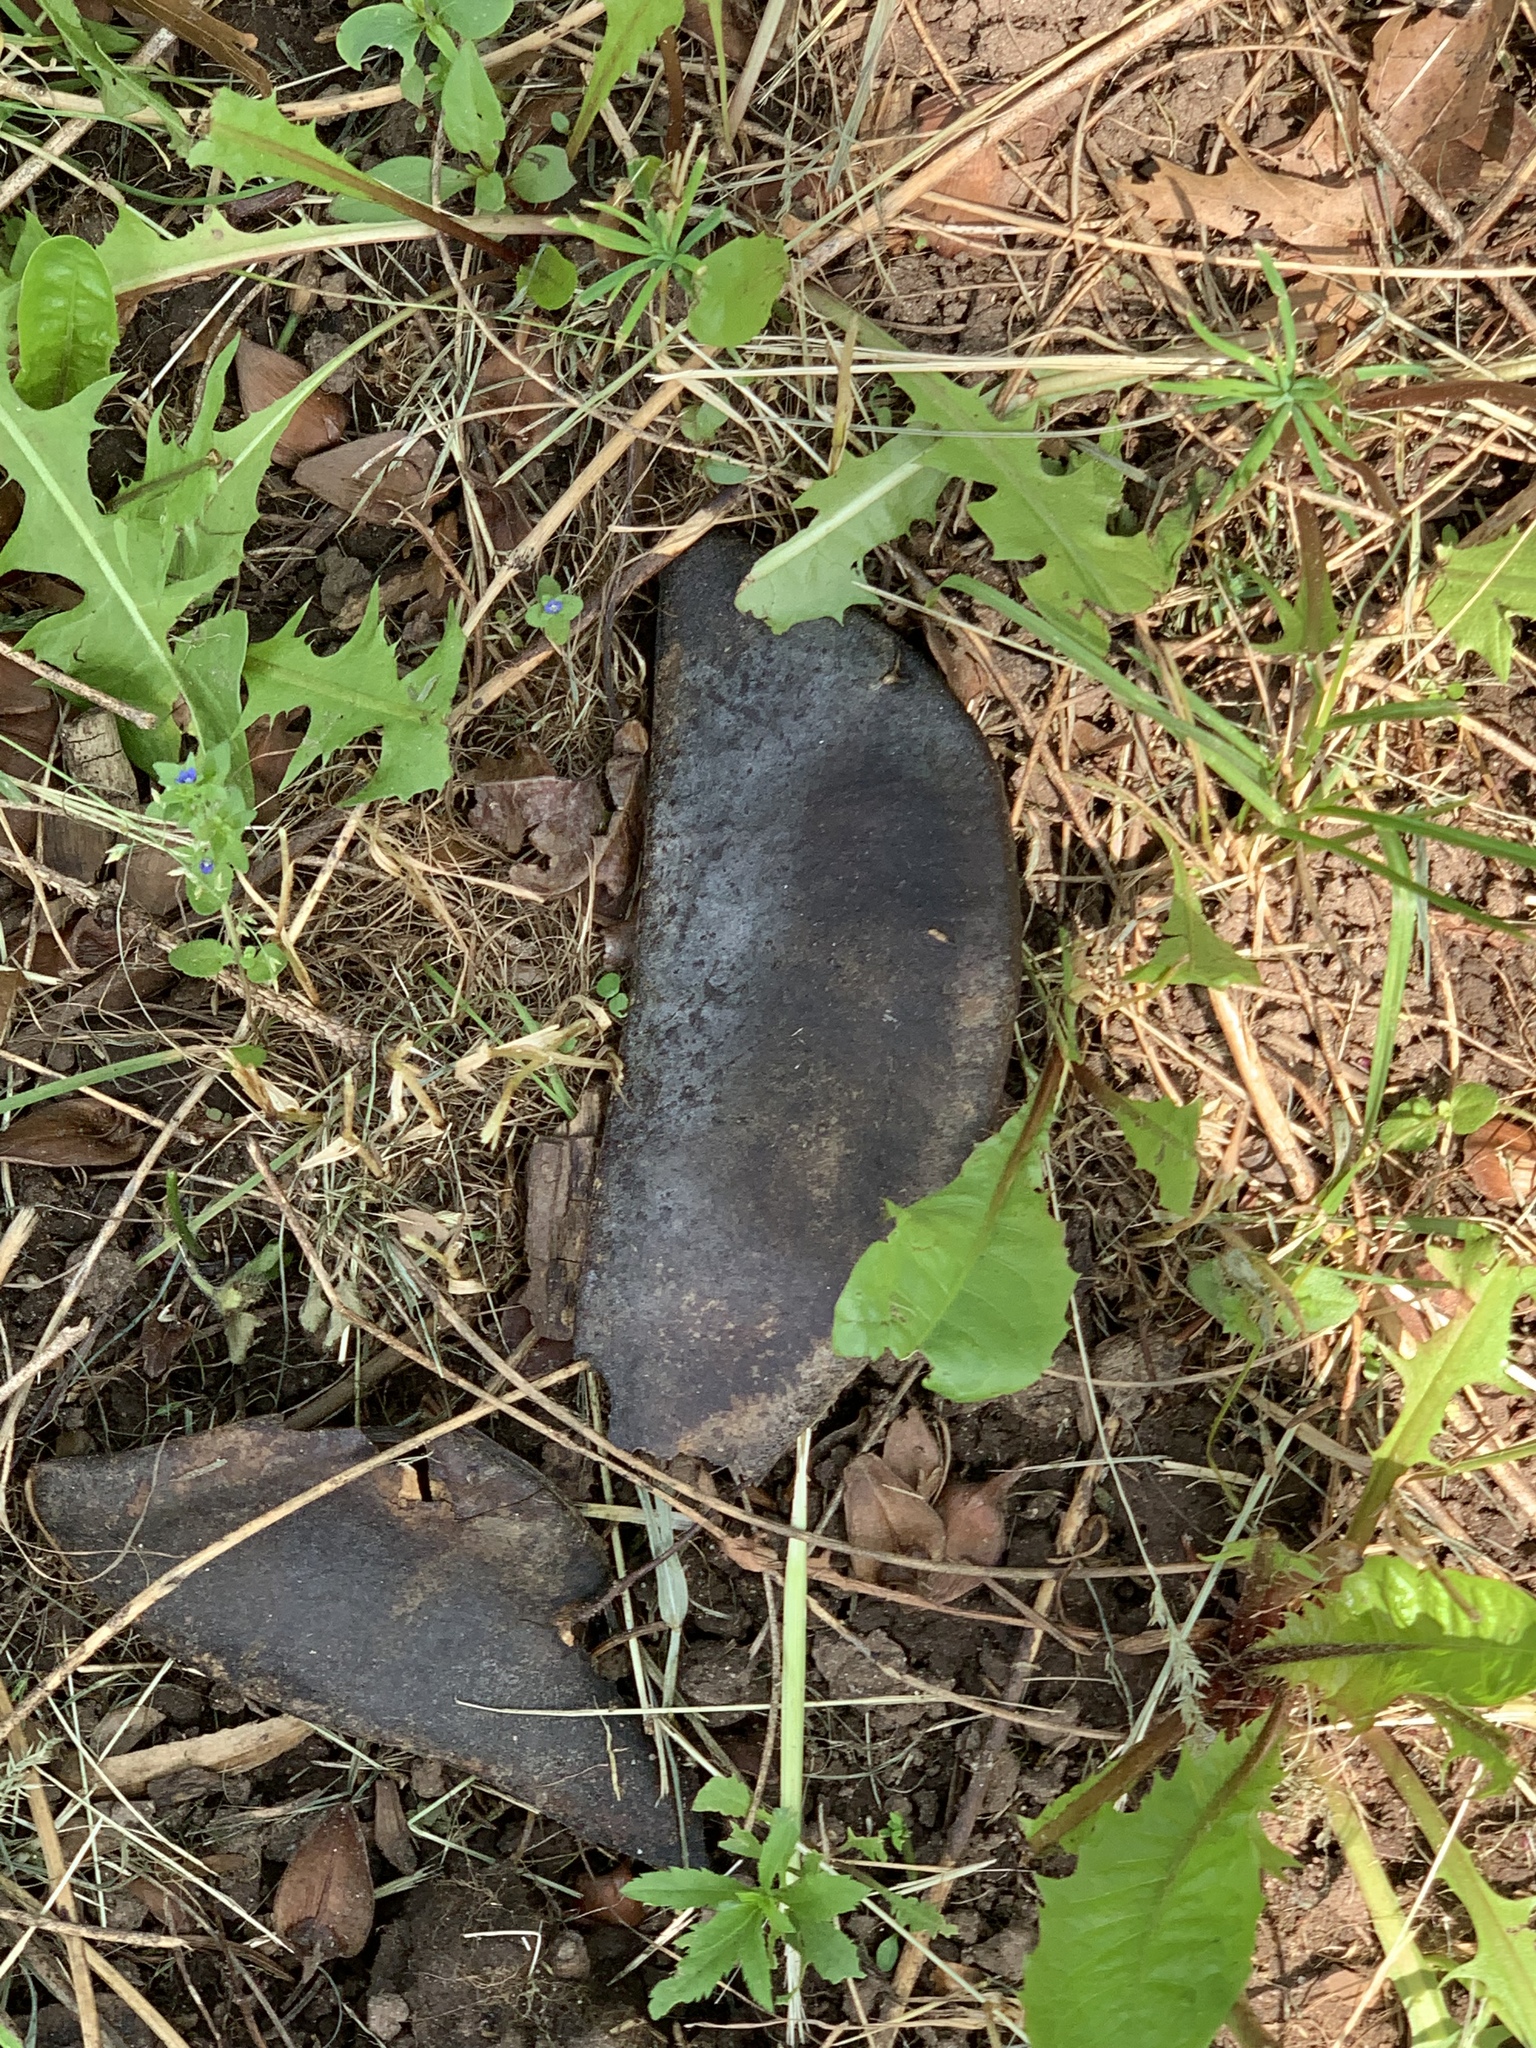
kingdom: Plantae
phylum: Tracheophyta
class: Magnoliopsida
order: Fabales
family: Fabaceae
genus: Gymnocladus
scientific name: Gymnocladus dioicus
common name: Kentucky coffee-tree
